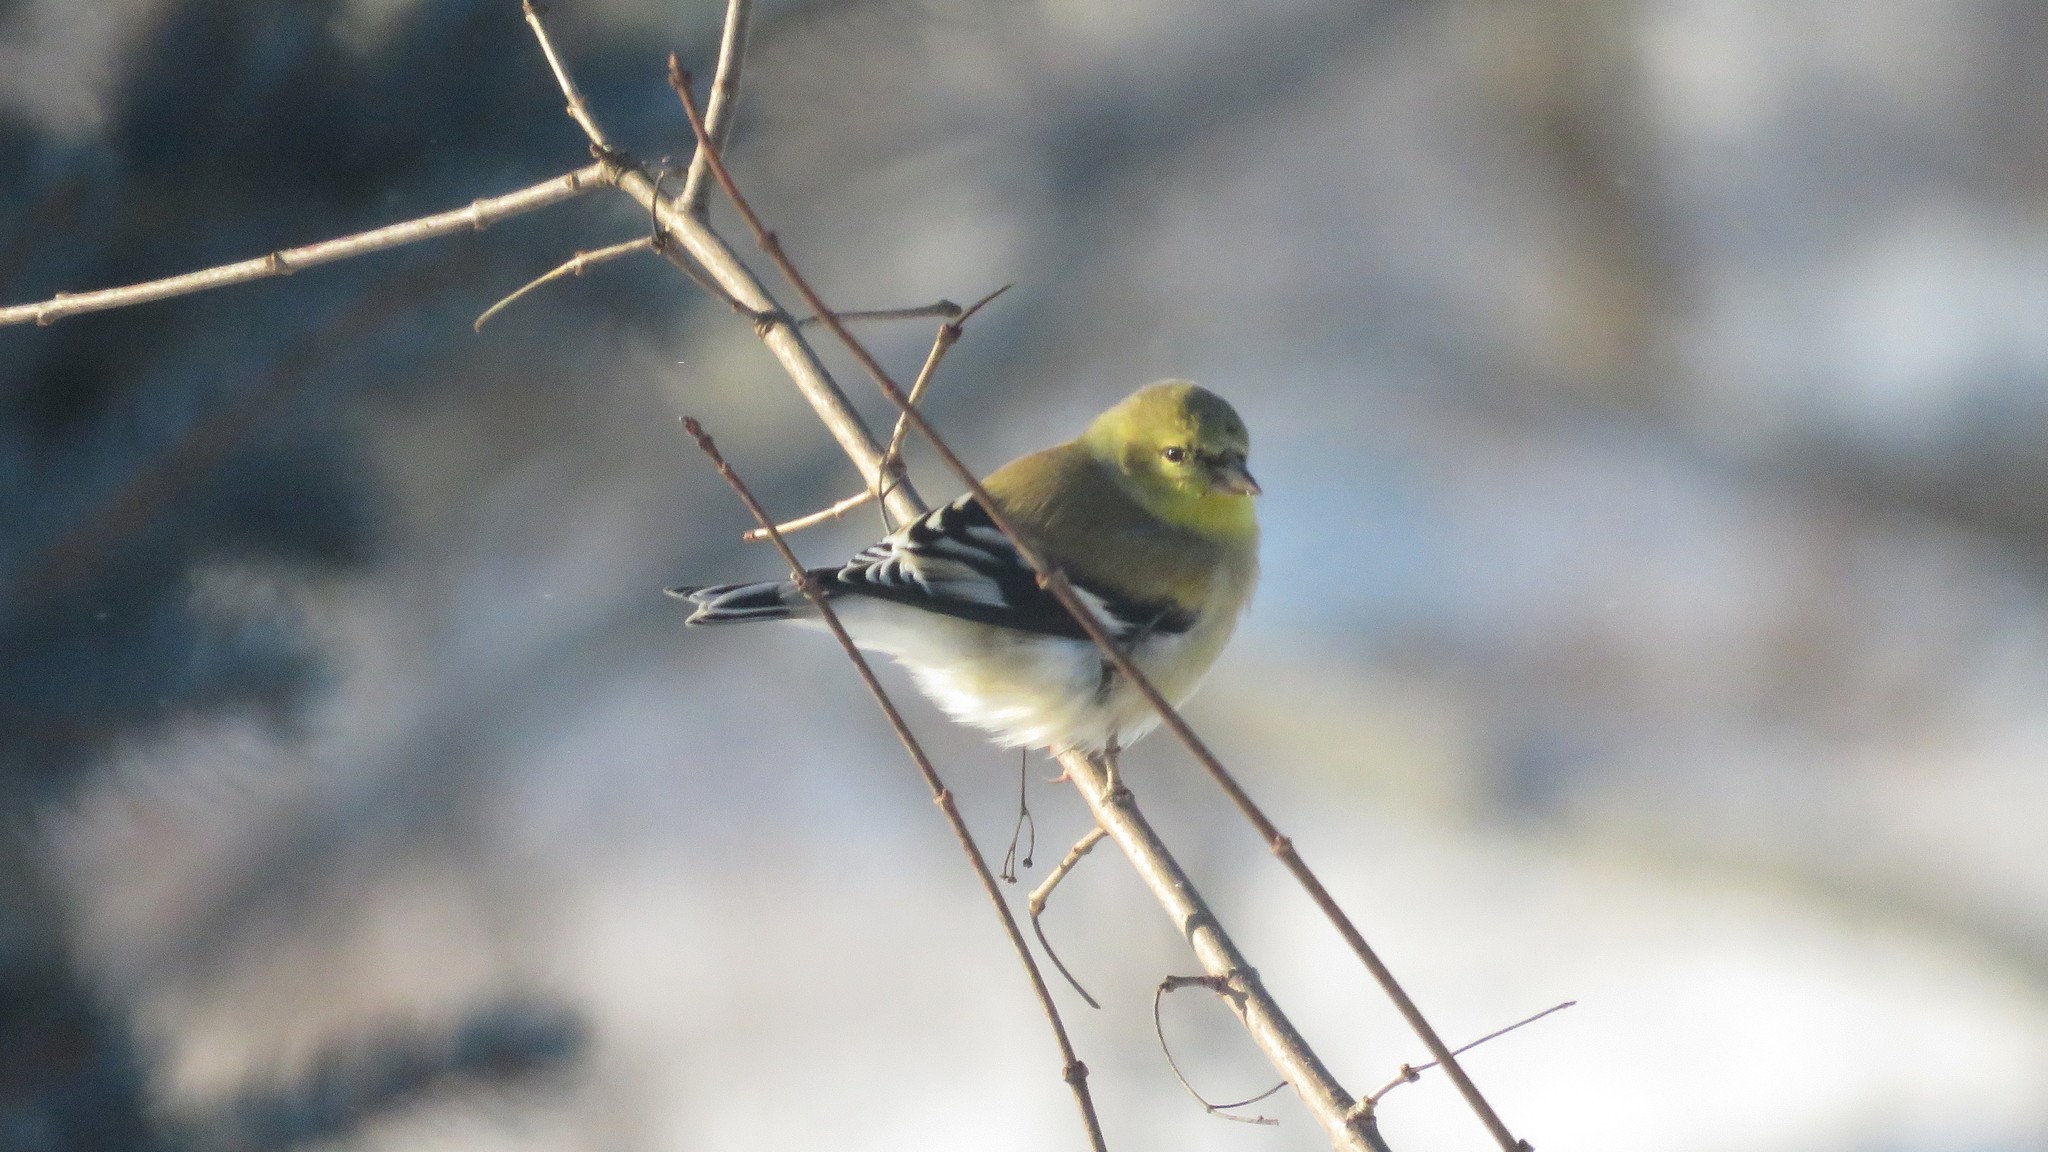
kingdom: Animalia
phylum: Chordata
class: Aves
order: Passeriformes
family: Fringillidae
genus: Spinus
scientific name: Spinus tristis
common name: American goldfinch
